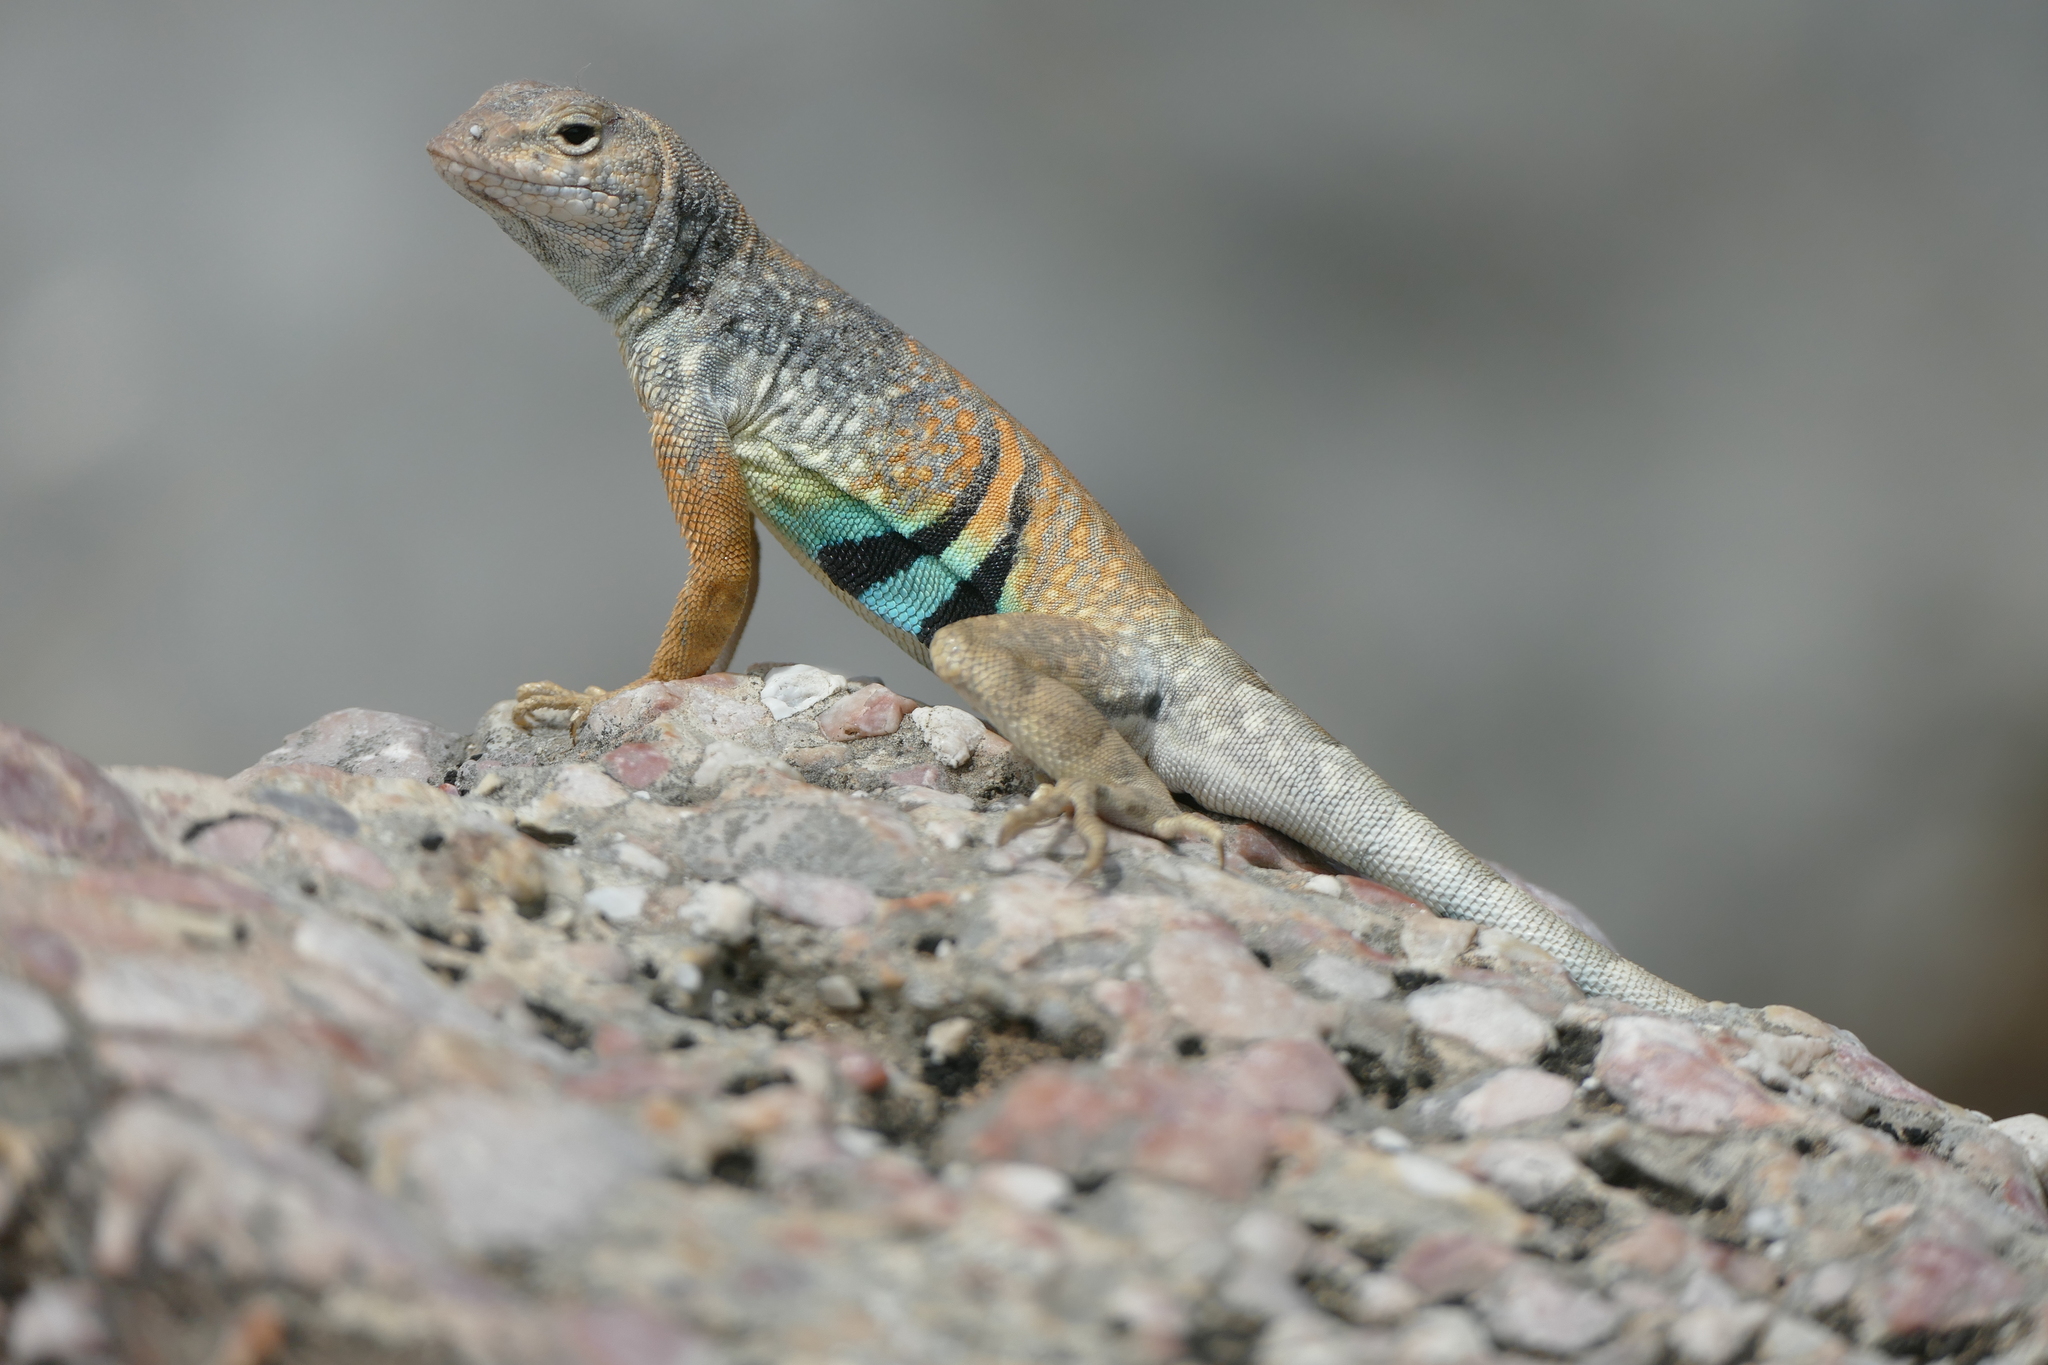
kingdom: Animalia
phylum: Chordata
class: Squamata
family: Phrynosomatidae
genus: Cophosaurus
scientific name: Cophosaurus texanus
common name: Greater earless lizard
